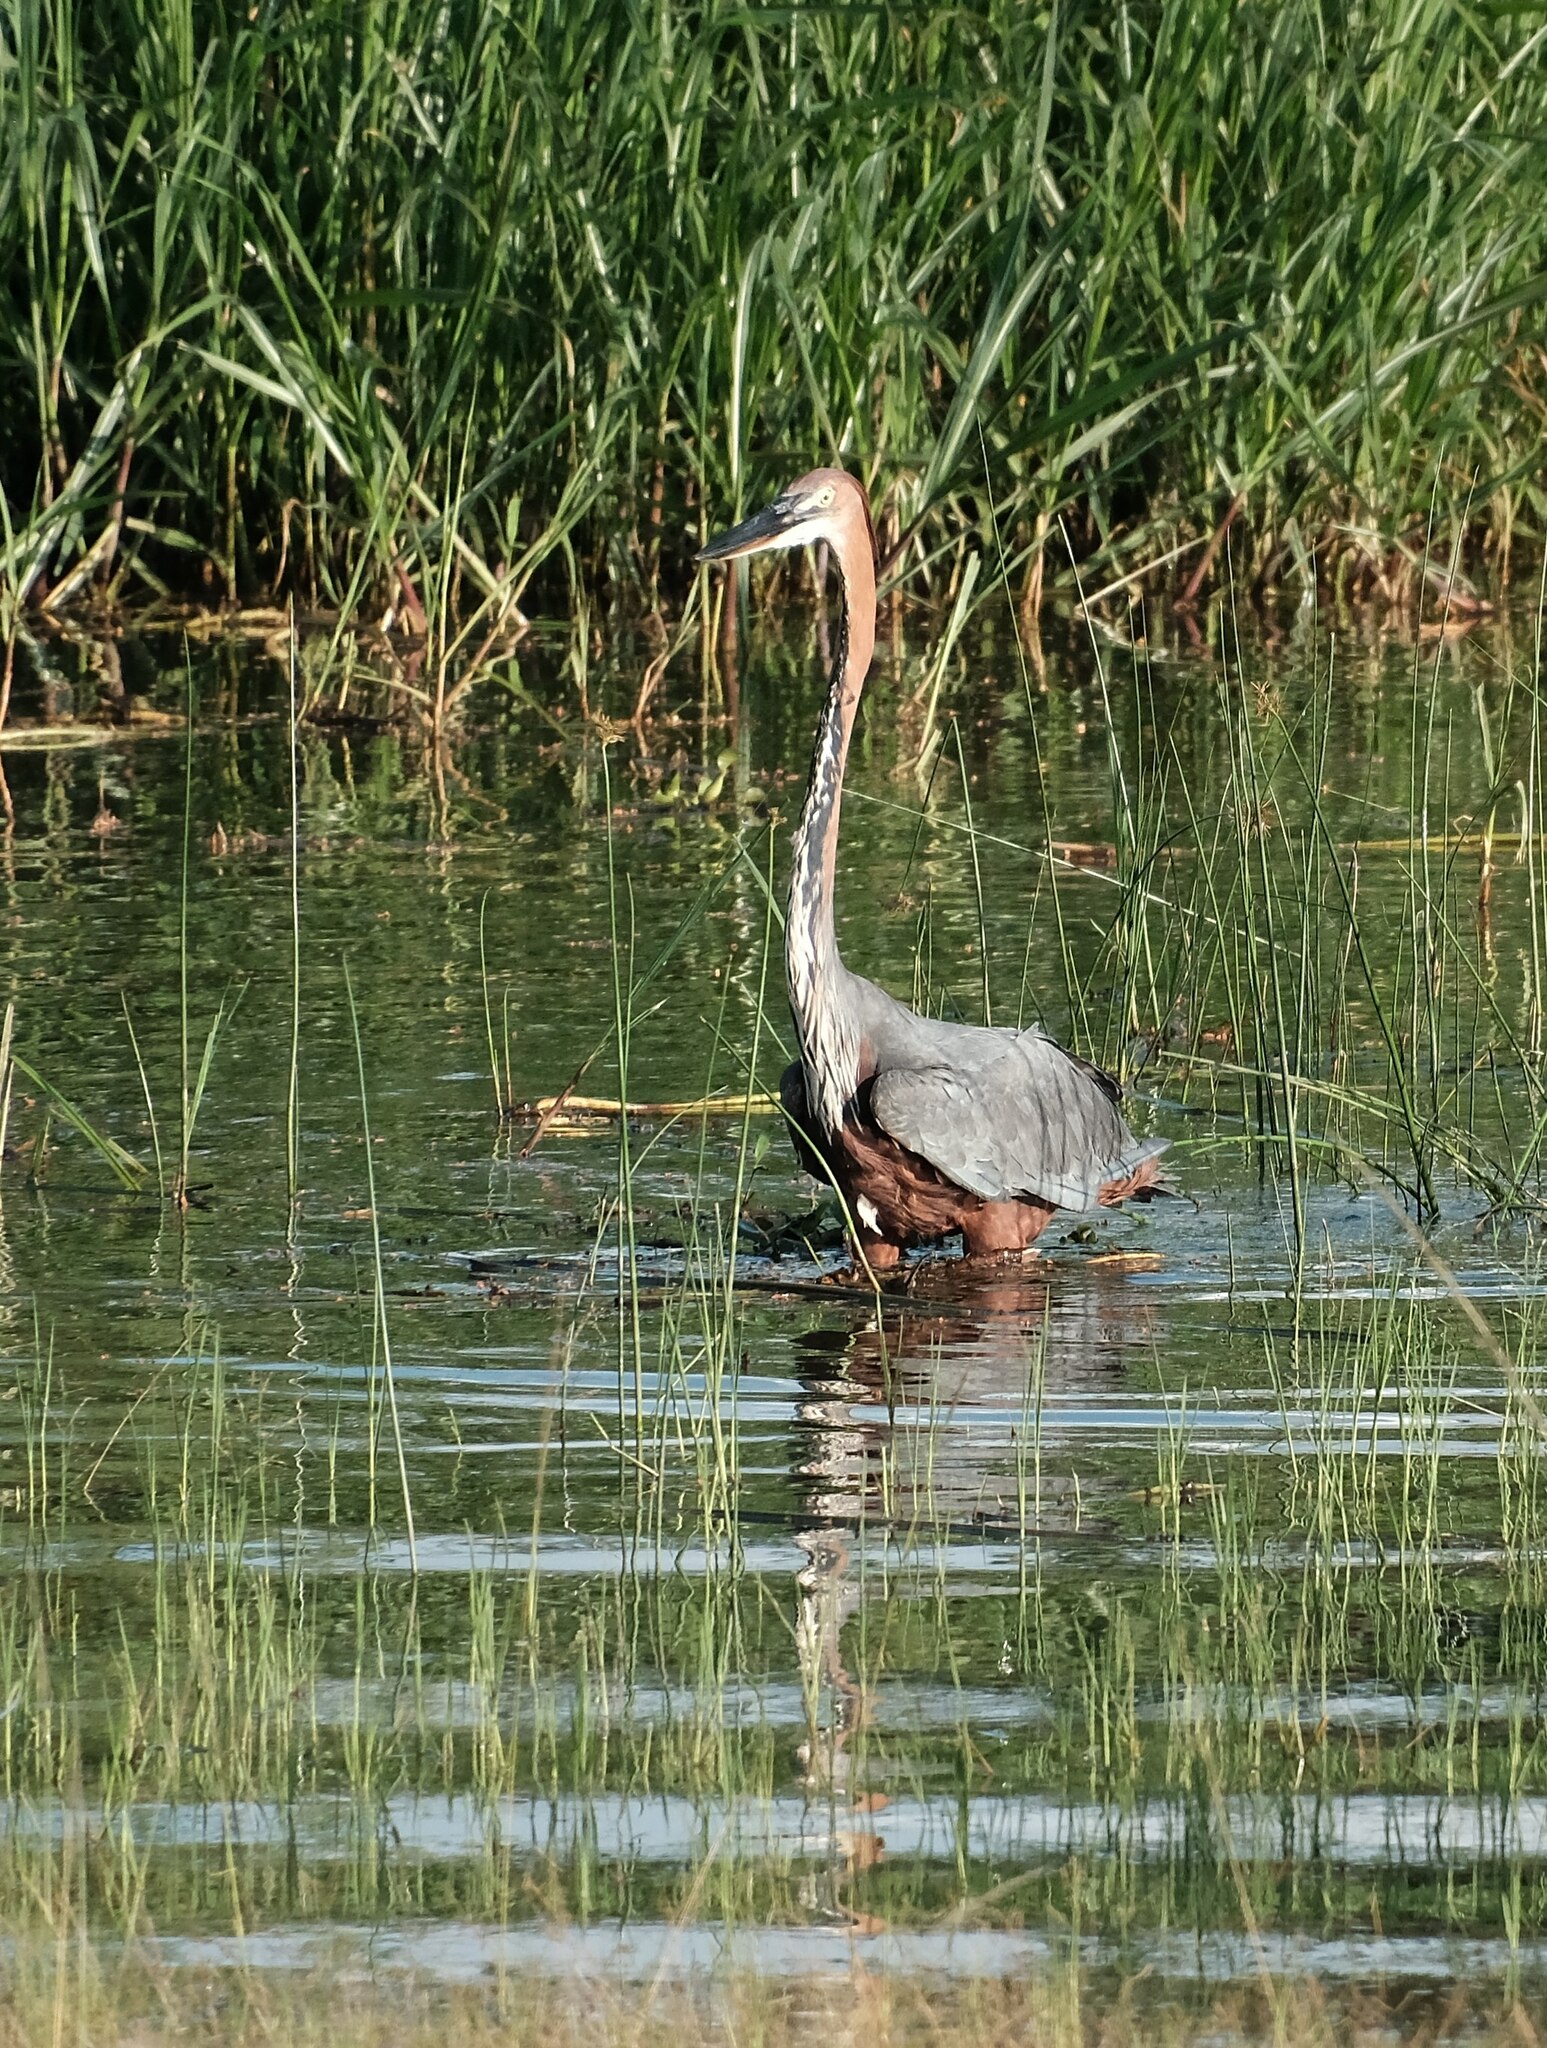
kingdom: Animalia
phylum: Chordata
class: Aves
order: Pelecaniformes
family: Ardeidae
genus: Ardea
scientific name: Ardea goliath
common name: Goliath heron
